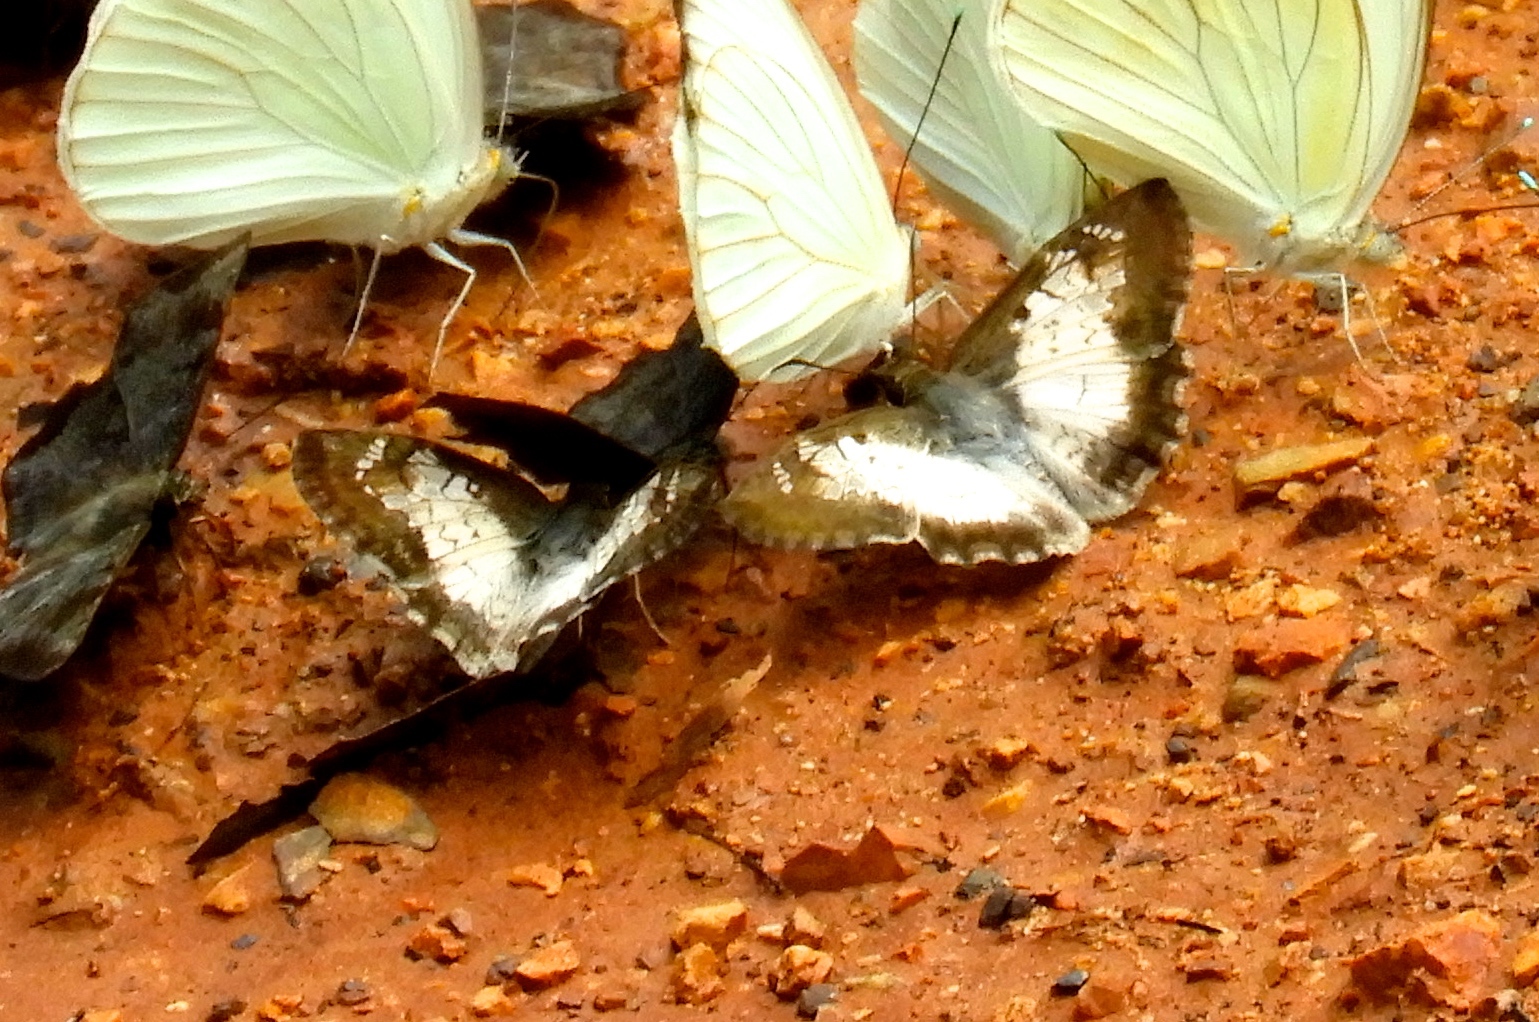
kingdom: Animalia
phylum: Arthropoda
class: Insecta
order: Lepidoptera
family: Hesperiidae
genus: Antigonus
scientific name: Antigonus emorsa
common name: White spurwing
